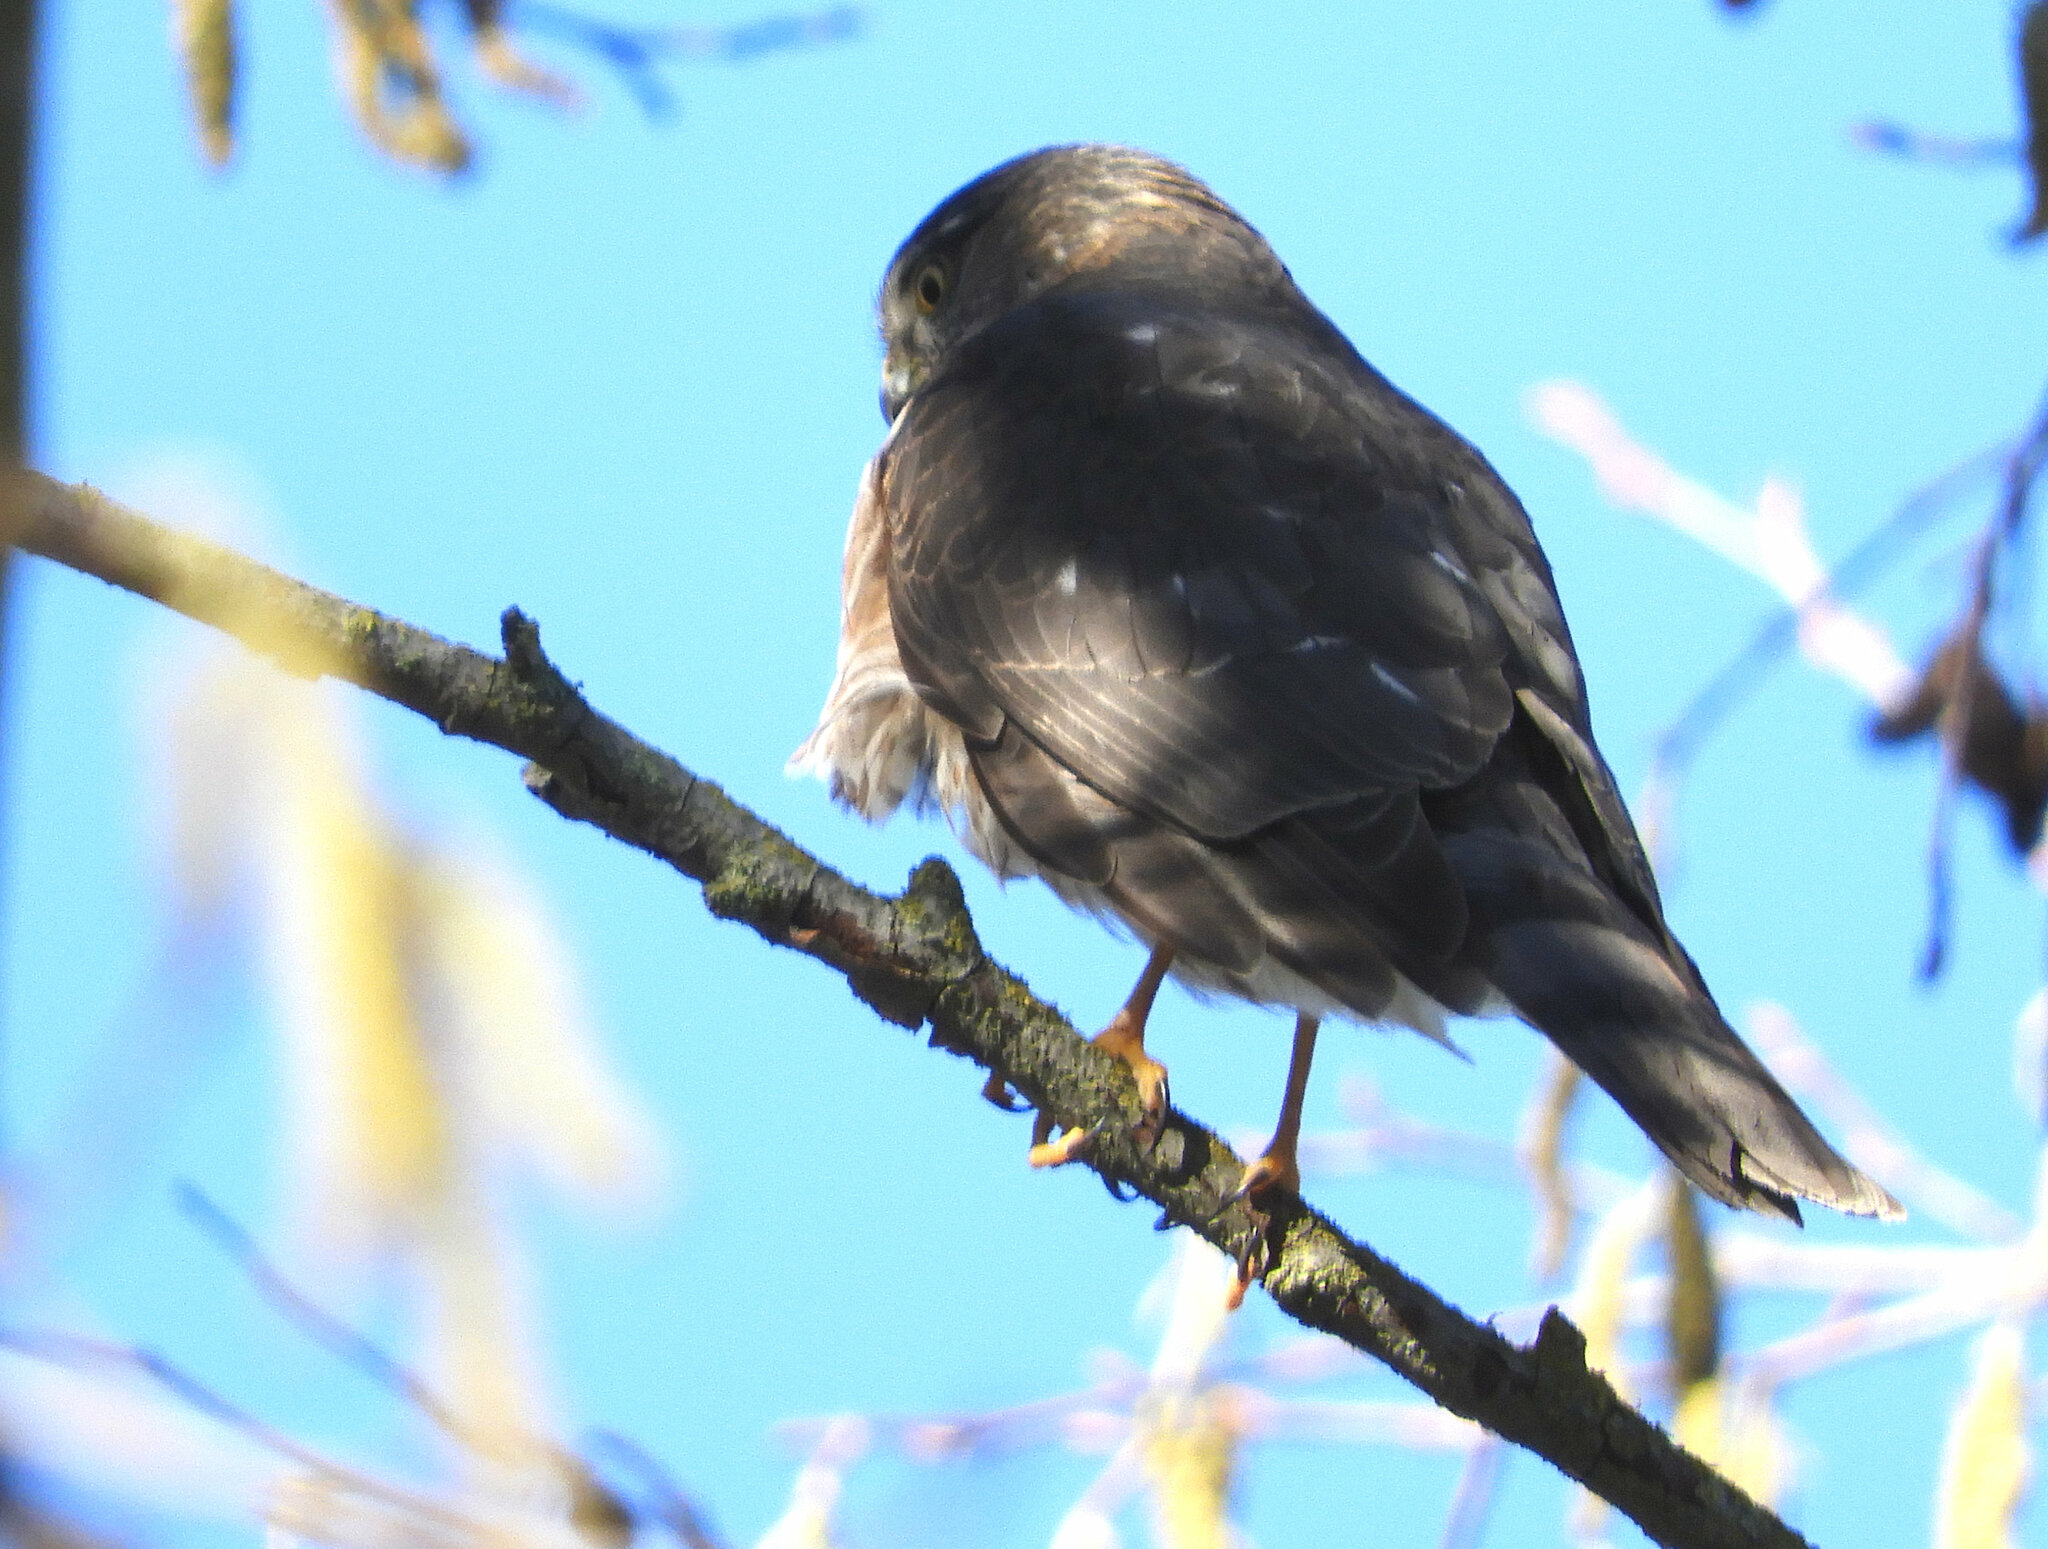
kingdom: Animalia
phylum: Chordata
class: Aves
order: Accipitriformes
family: Accipitridae
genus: Accipiter
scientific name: Accipiter striatus
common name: Sharp-shinned hawk
